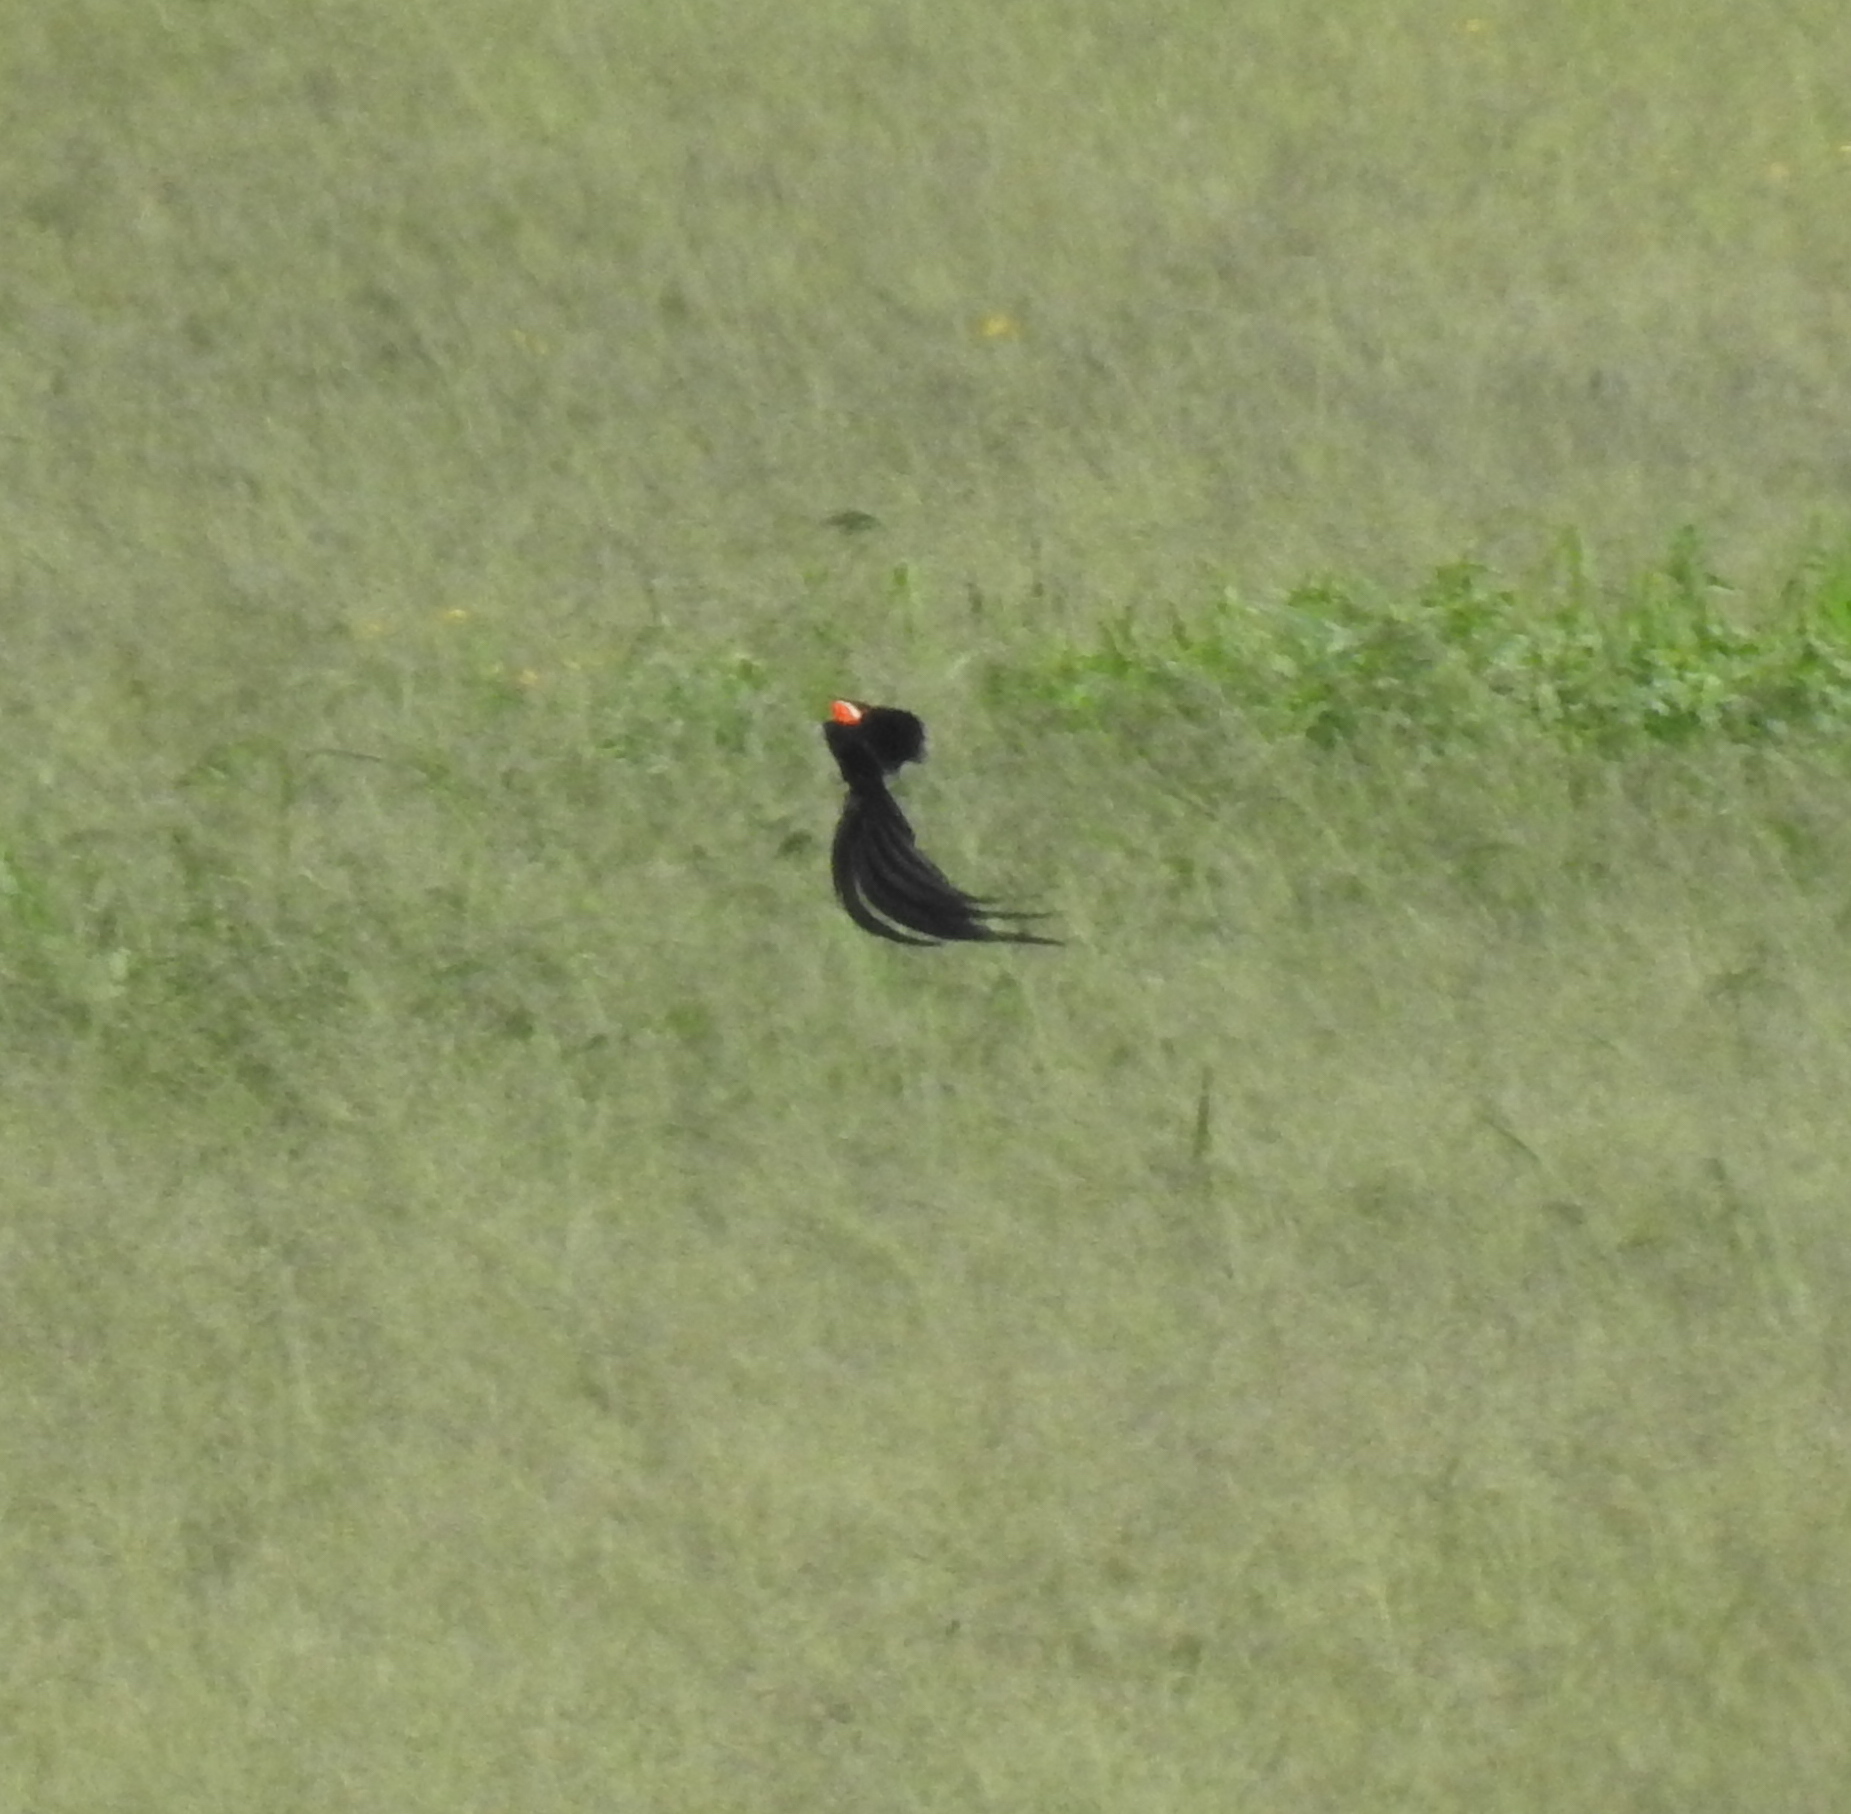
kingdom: Animalia
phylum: Chordata
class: Aves
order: Passeriformes
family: Ploceidae
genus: Euplectes
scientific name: Euplectes progne
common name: Long-tailed widowbird
